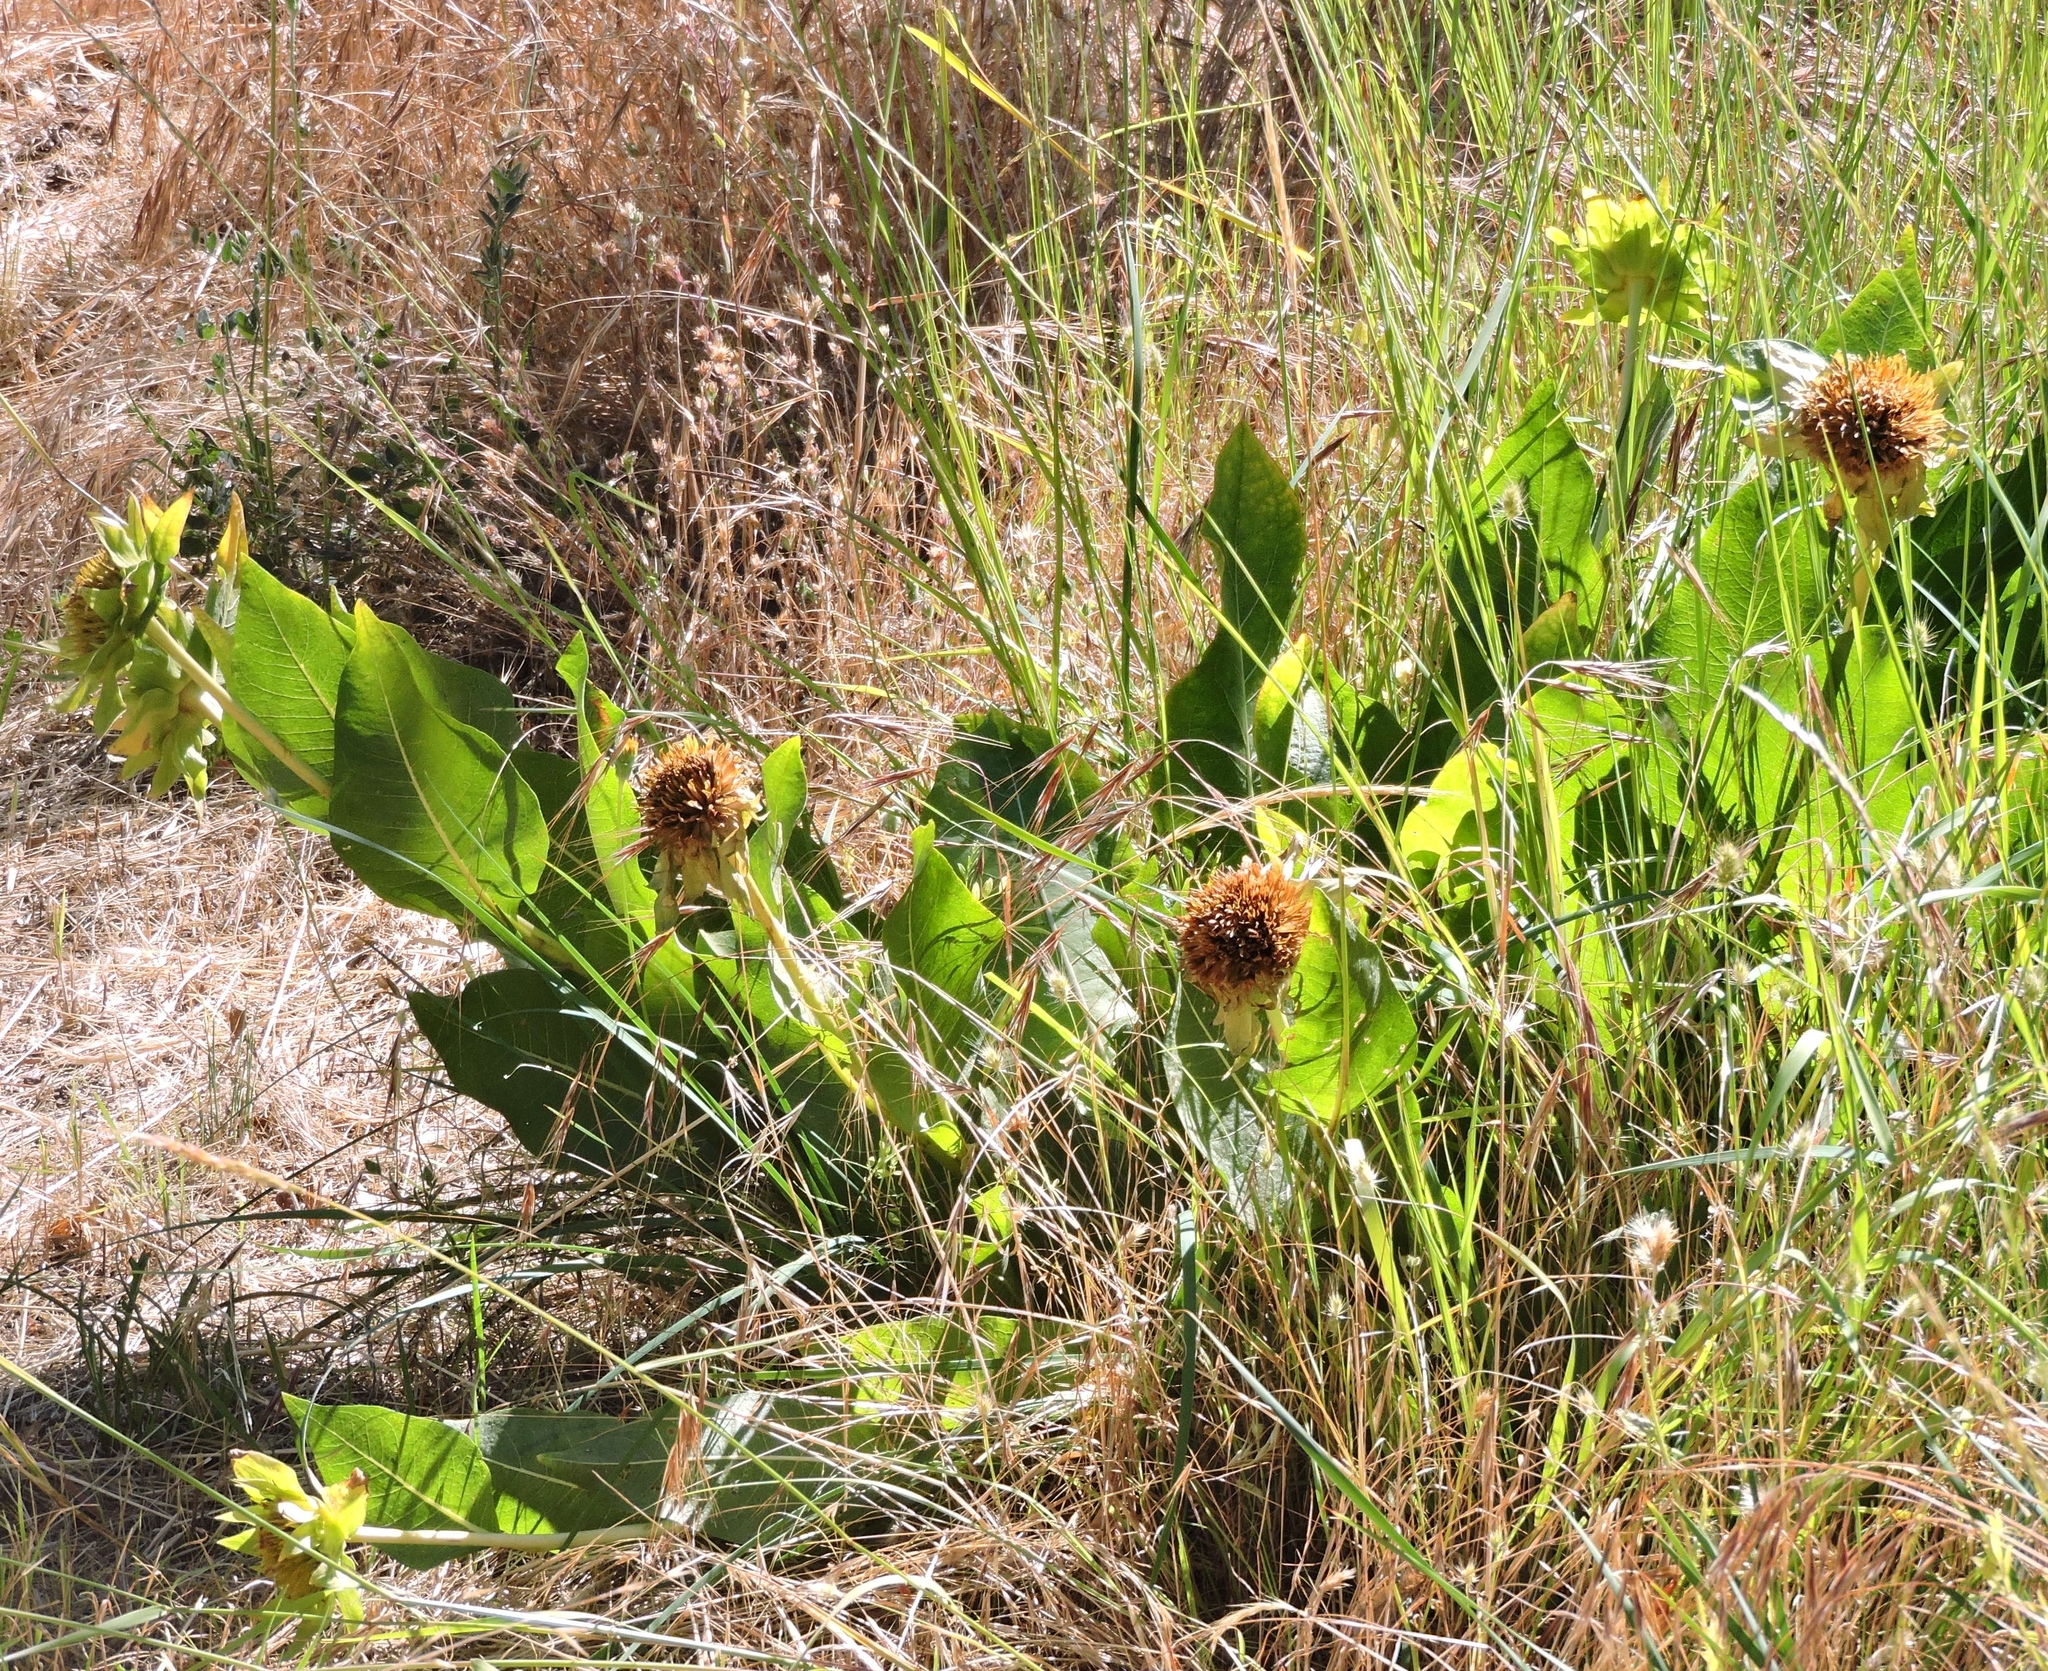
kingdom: Plantae
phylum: Tracheophyta
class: Magnoliopsida
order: Asterales
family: Asteraceae
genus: Wyethia
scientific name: Wyethia glabra
